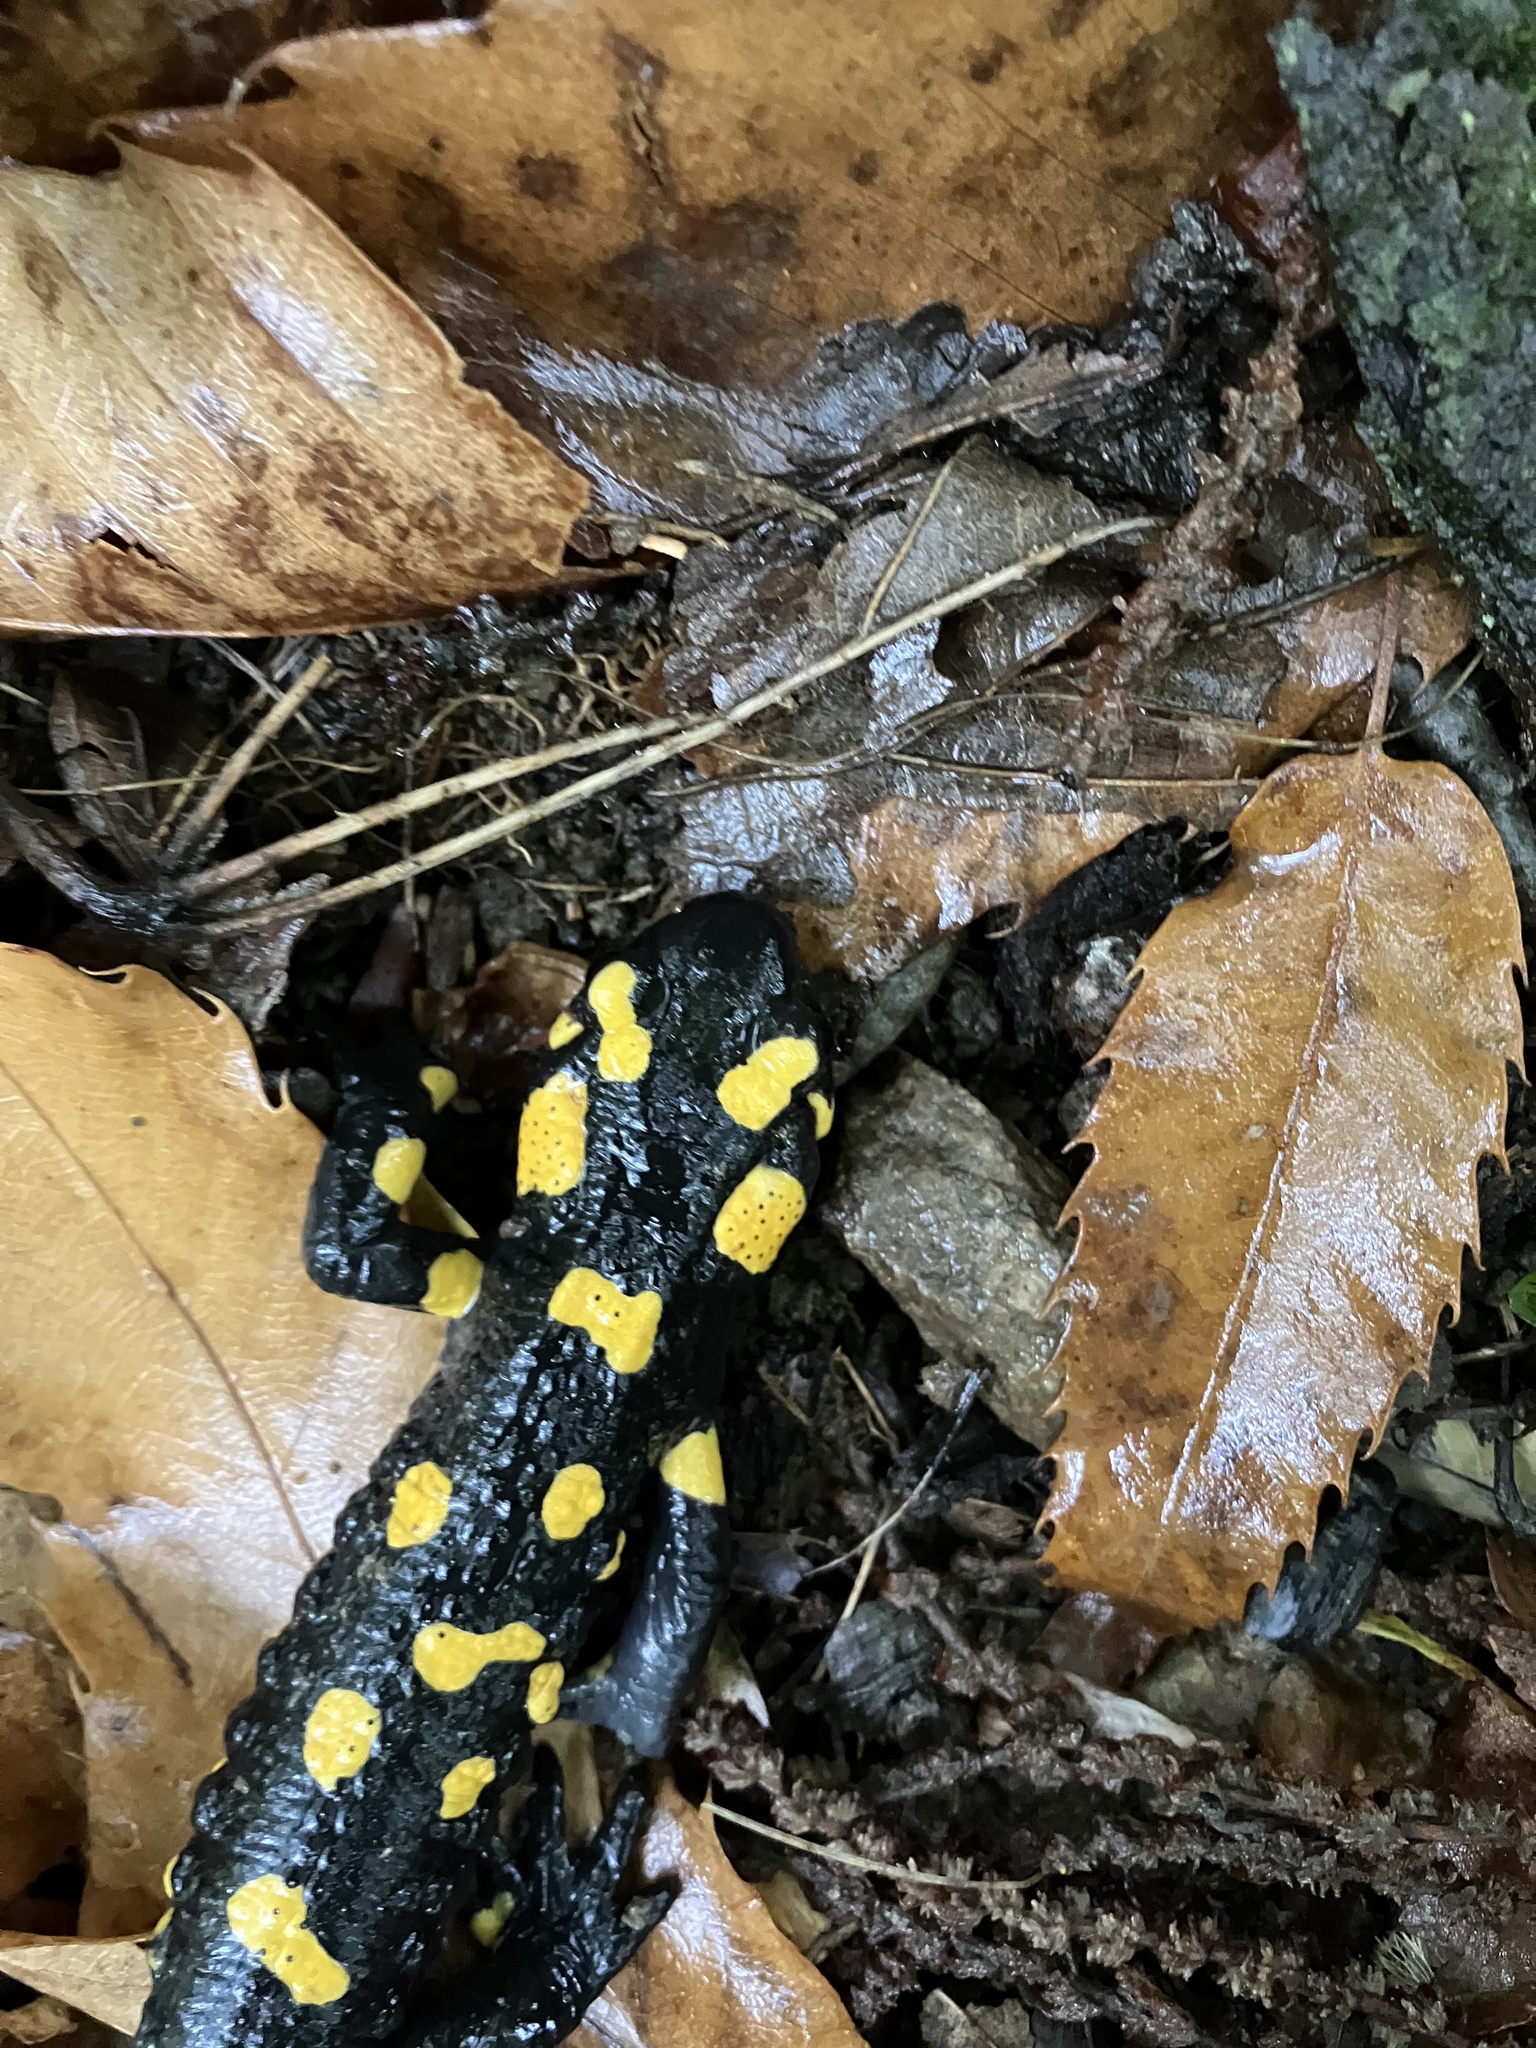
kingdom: Animalia
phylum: Chordata
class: Amphibia
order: Caudata
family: Salamandridae
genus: Salamandra
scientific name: Salamandra salamandra
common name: Fire salamander
